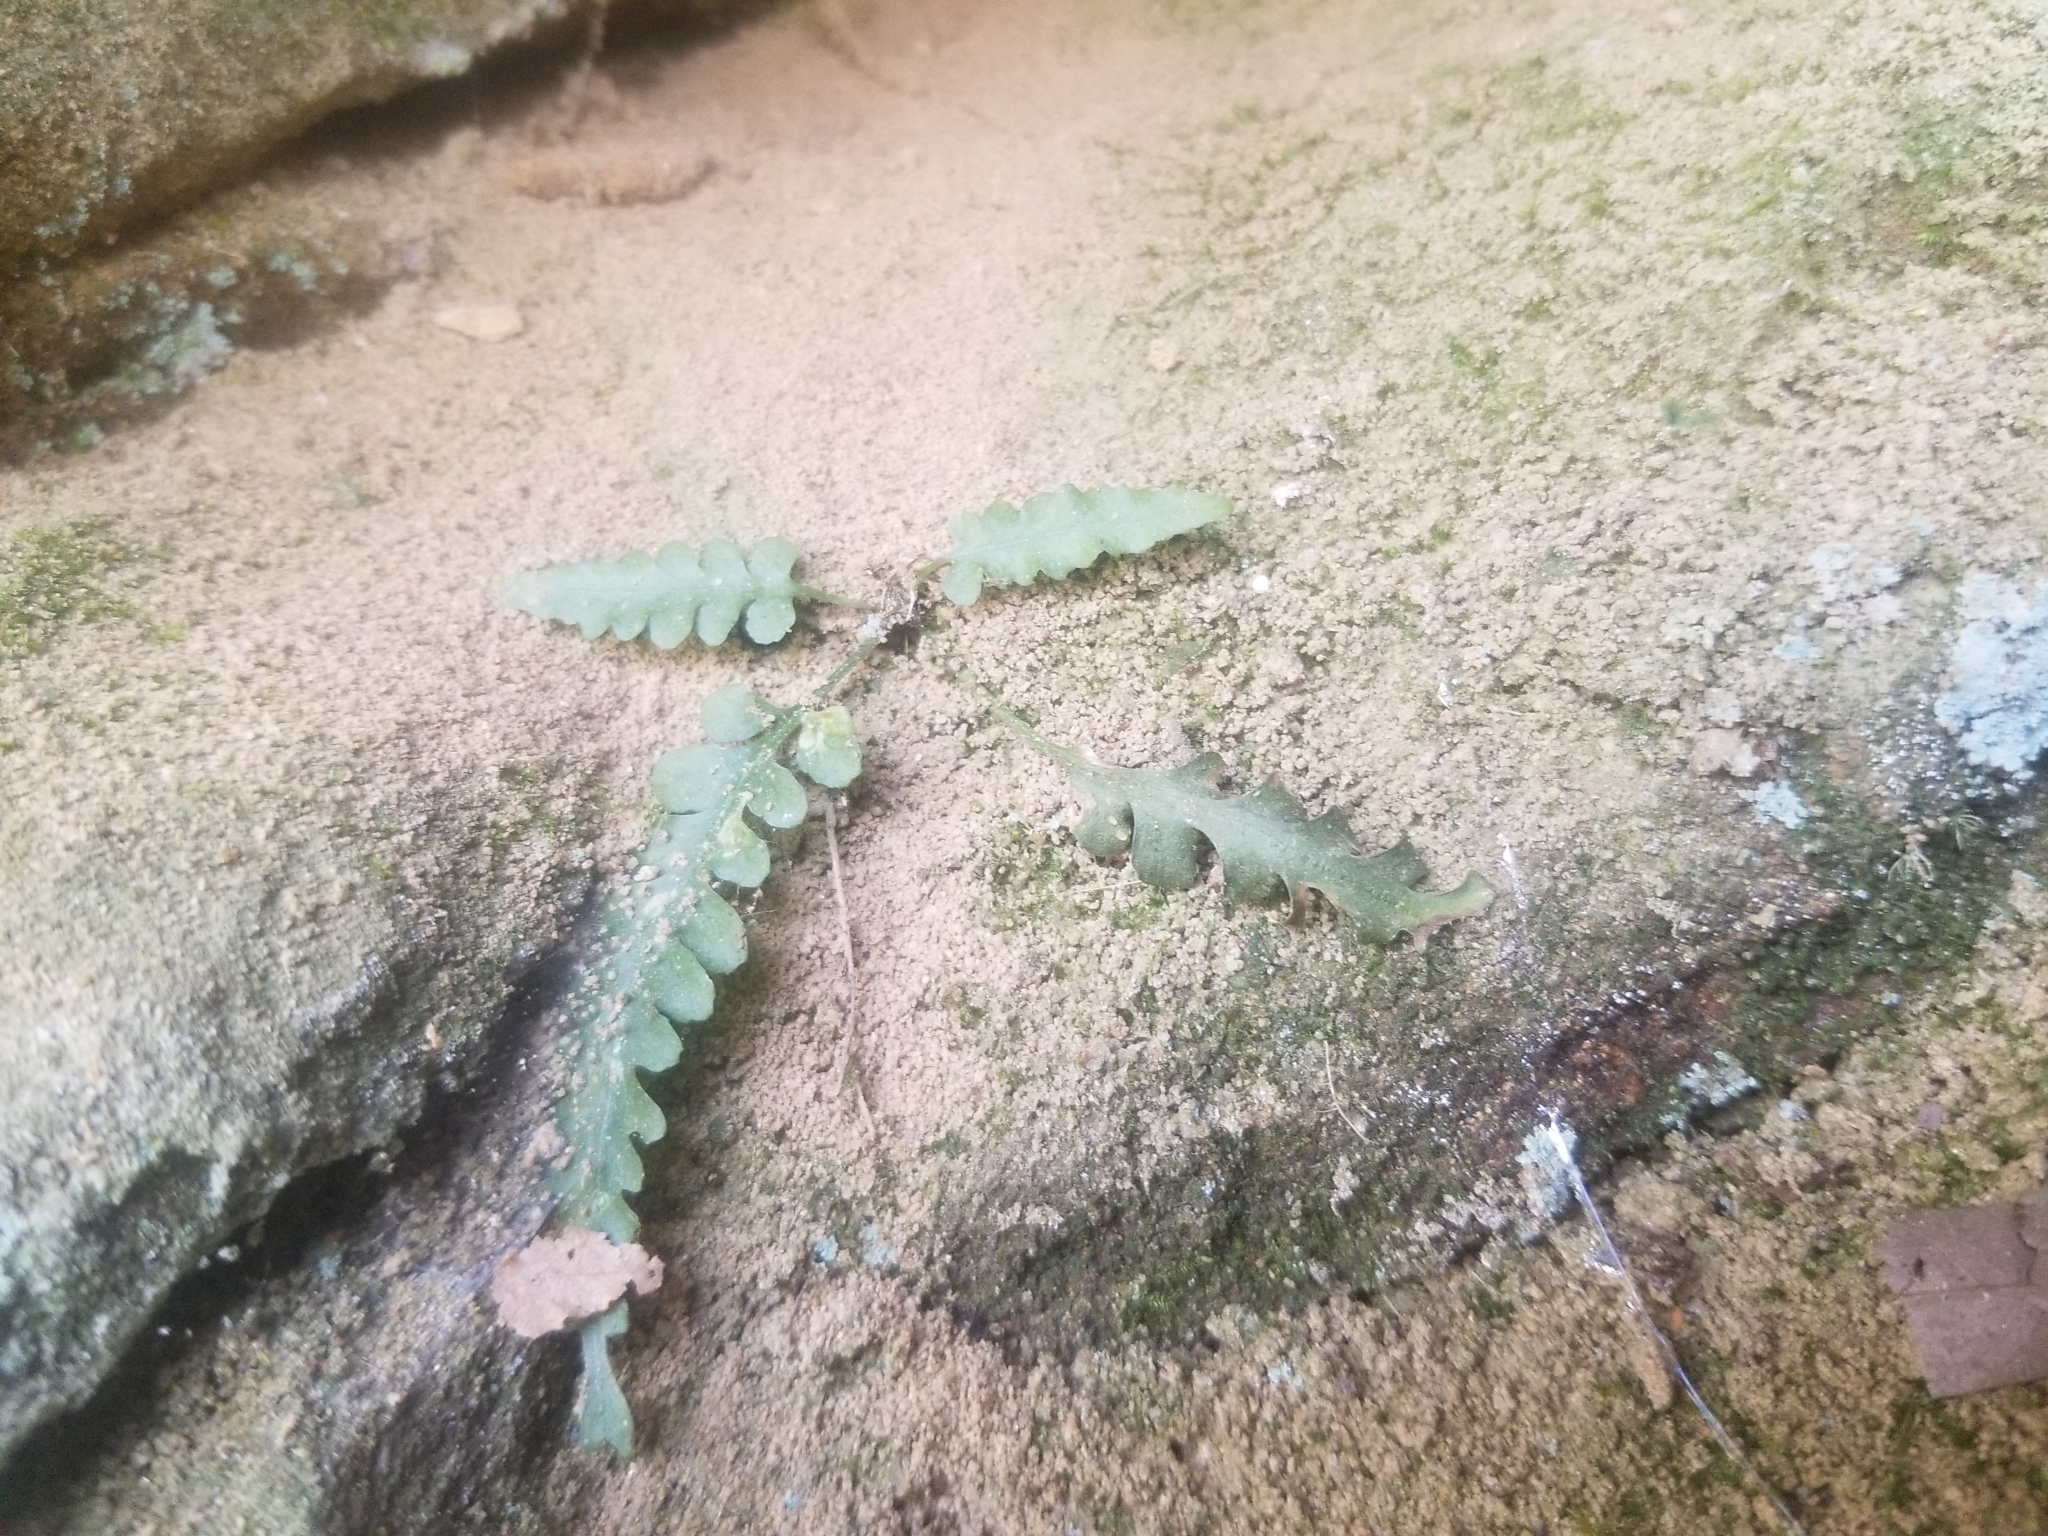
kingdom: Plantae
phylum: Tracheophyta
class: Polypodiopsida
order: Polypodiales
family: Aspleniaceae
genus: Asplenium
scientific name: Asplenium pinnatifidum
